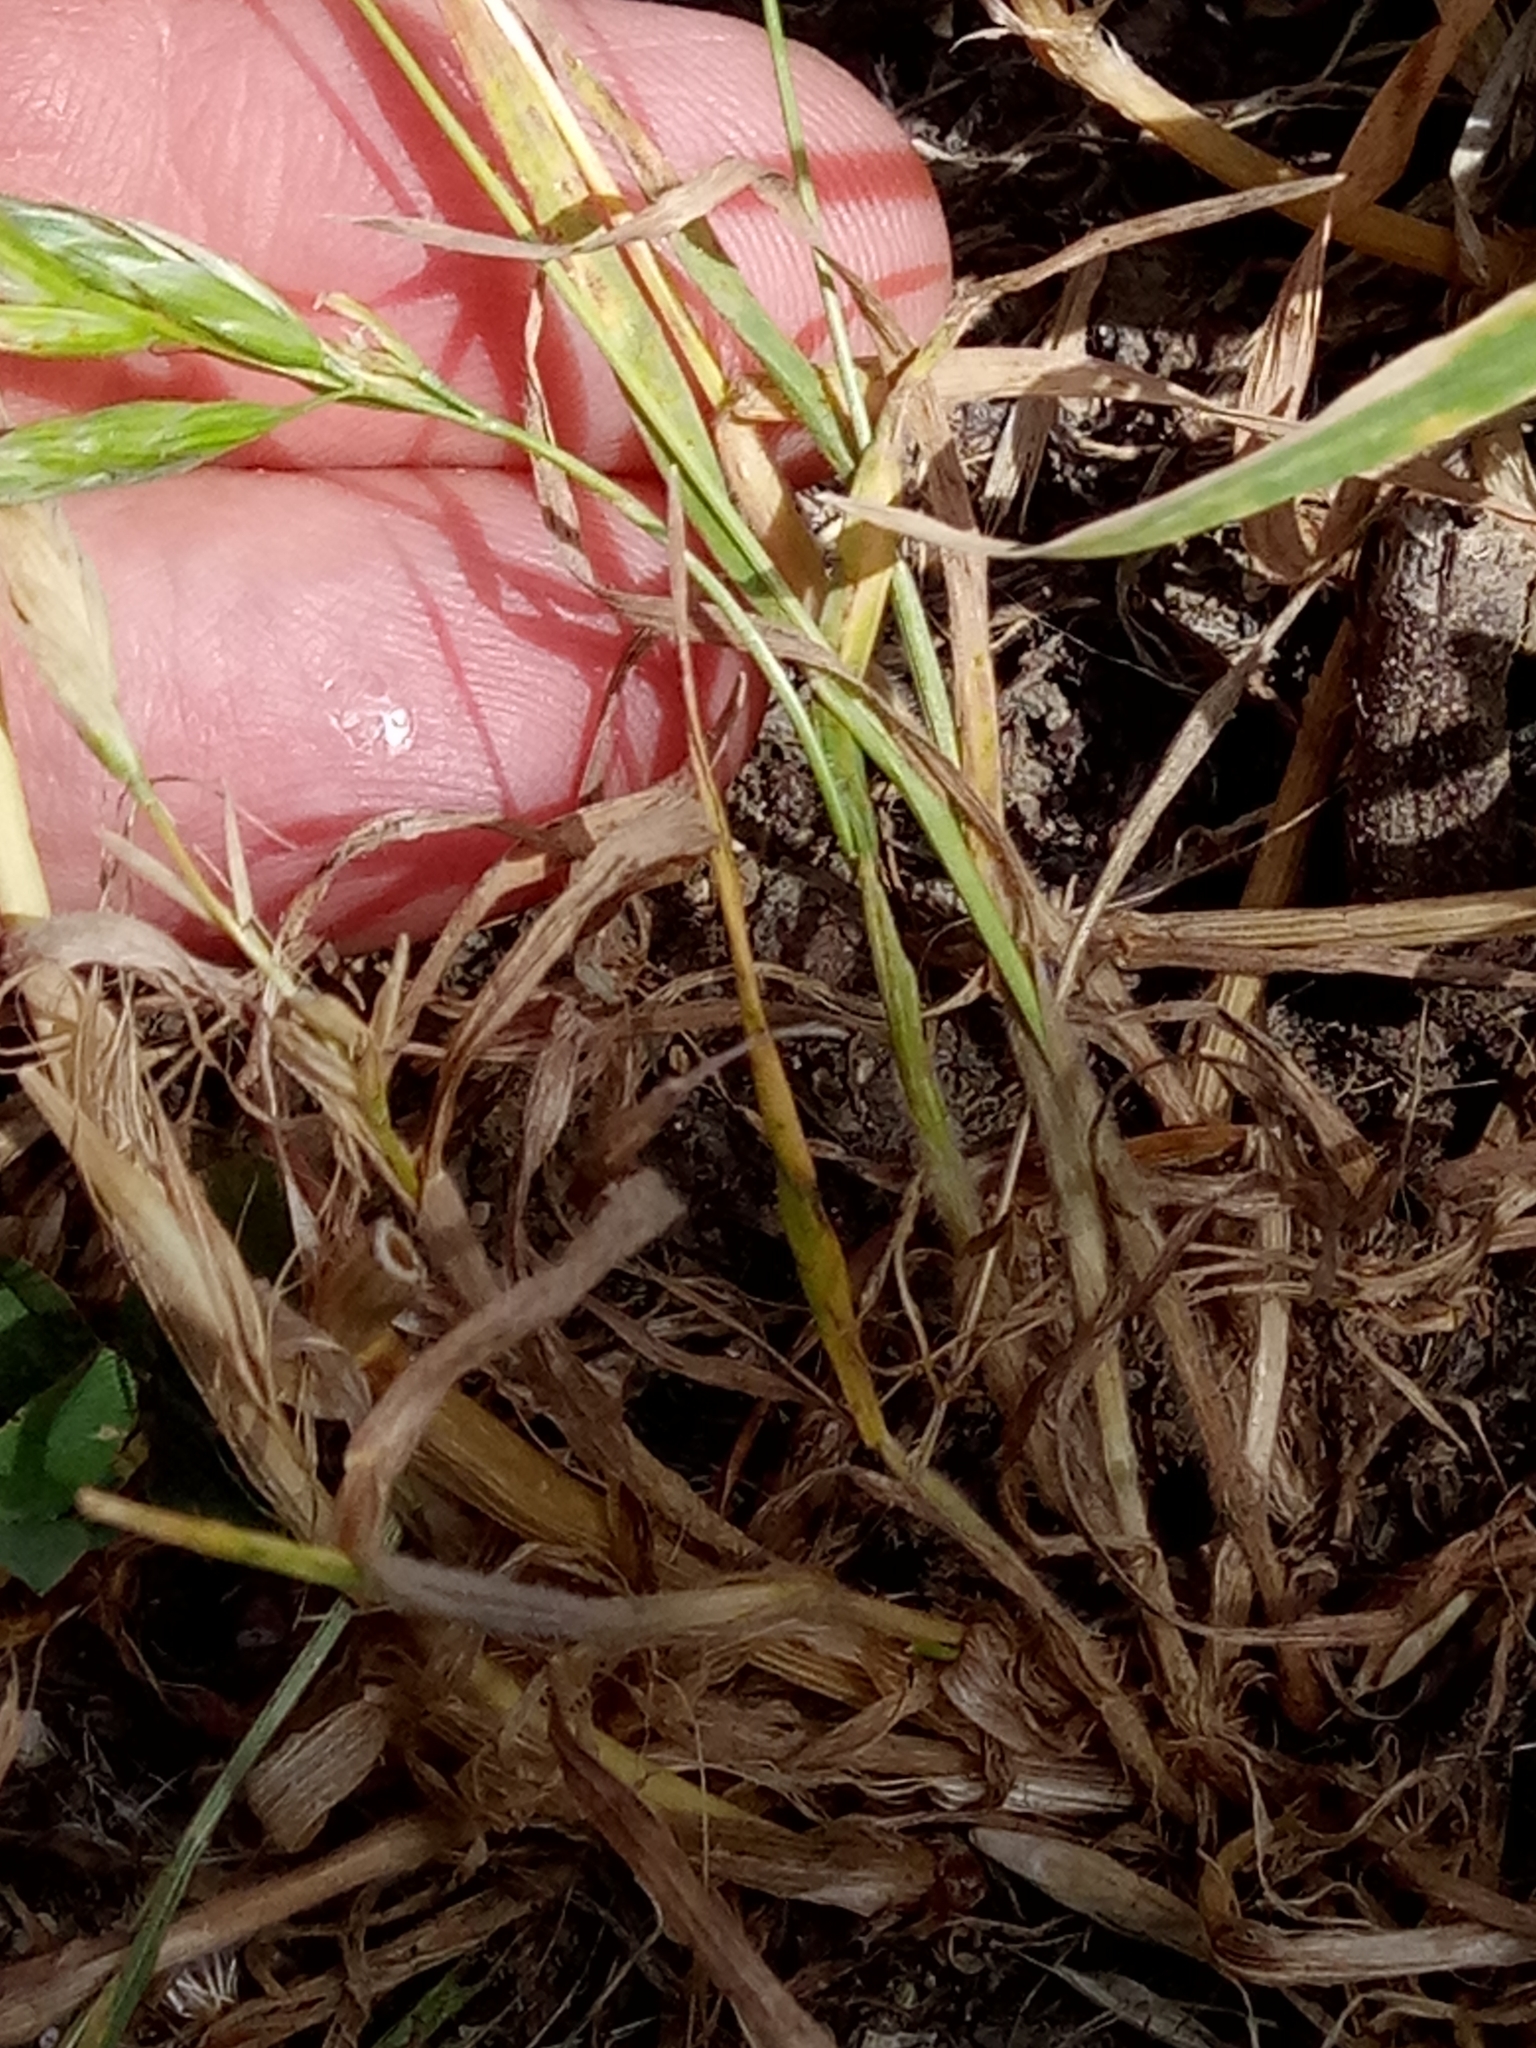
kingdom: Plantae
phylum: Tracheophyta
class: Liliopsida
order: Poales
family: Poaceae
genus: Bromus
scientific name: Bromus hordeaceus
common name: Soft brome
